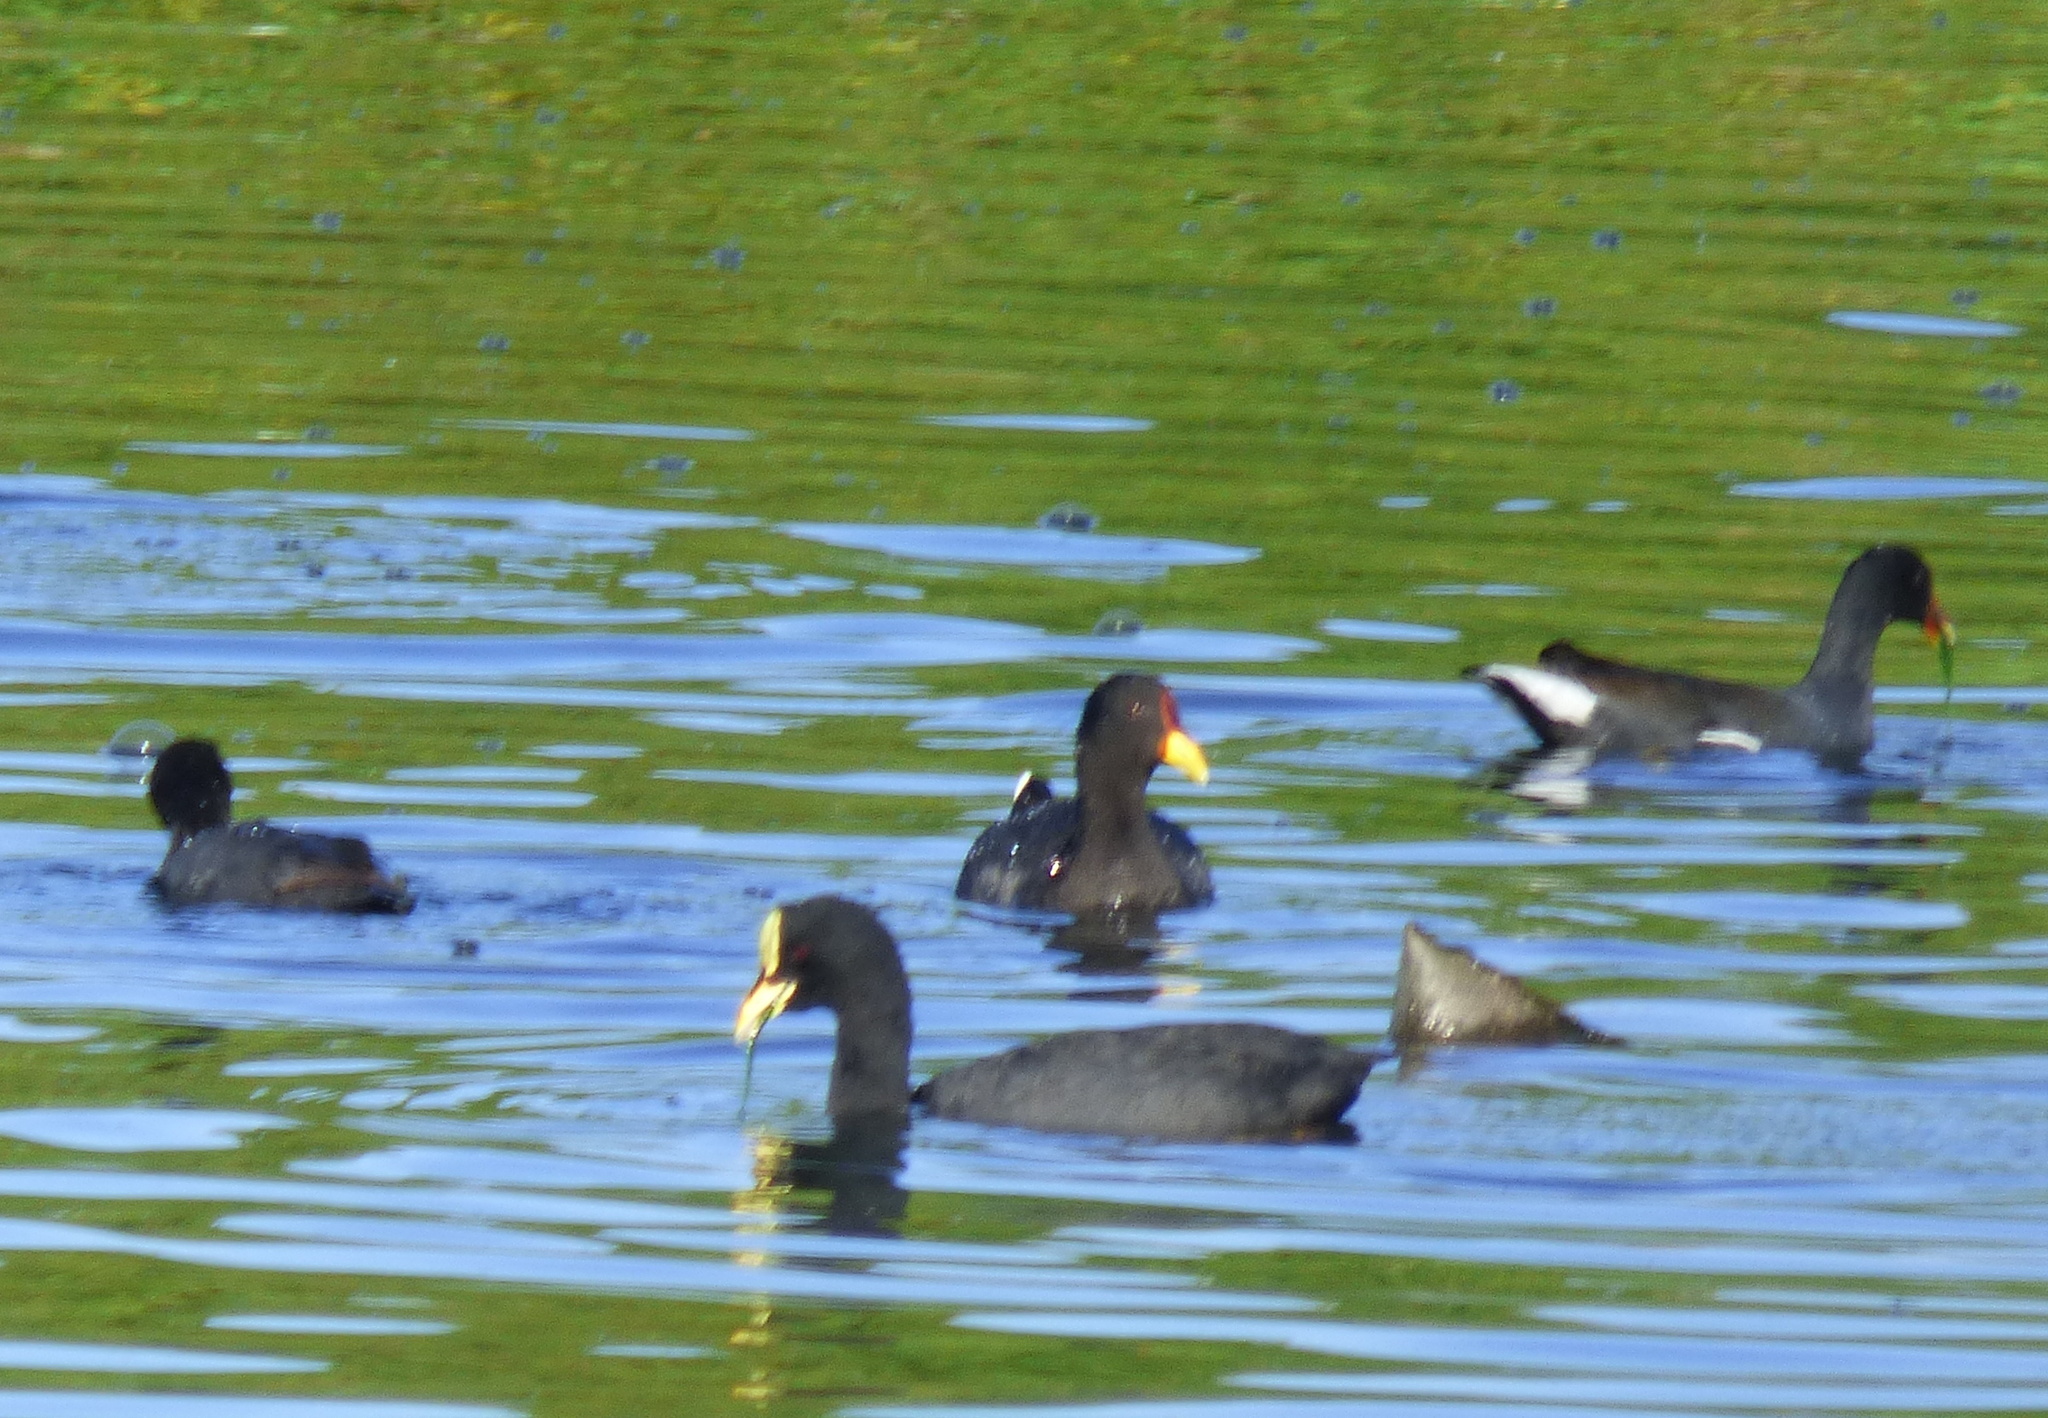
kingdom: Animalia
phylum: Chordata
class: Aves
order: Gruiformes
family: Rallidae
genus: Fulica
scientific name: Fulica armillata
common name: Red-gartered coot
